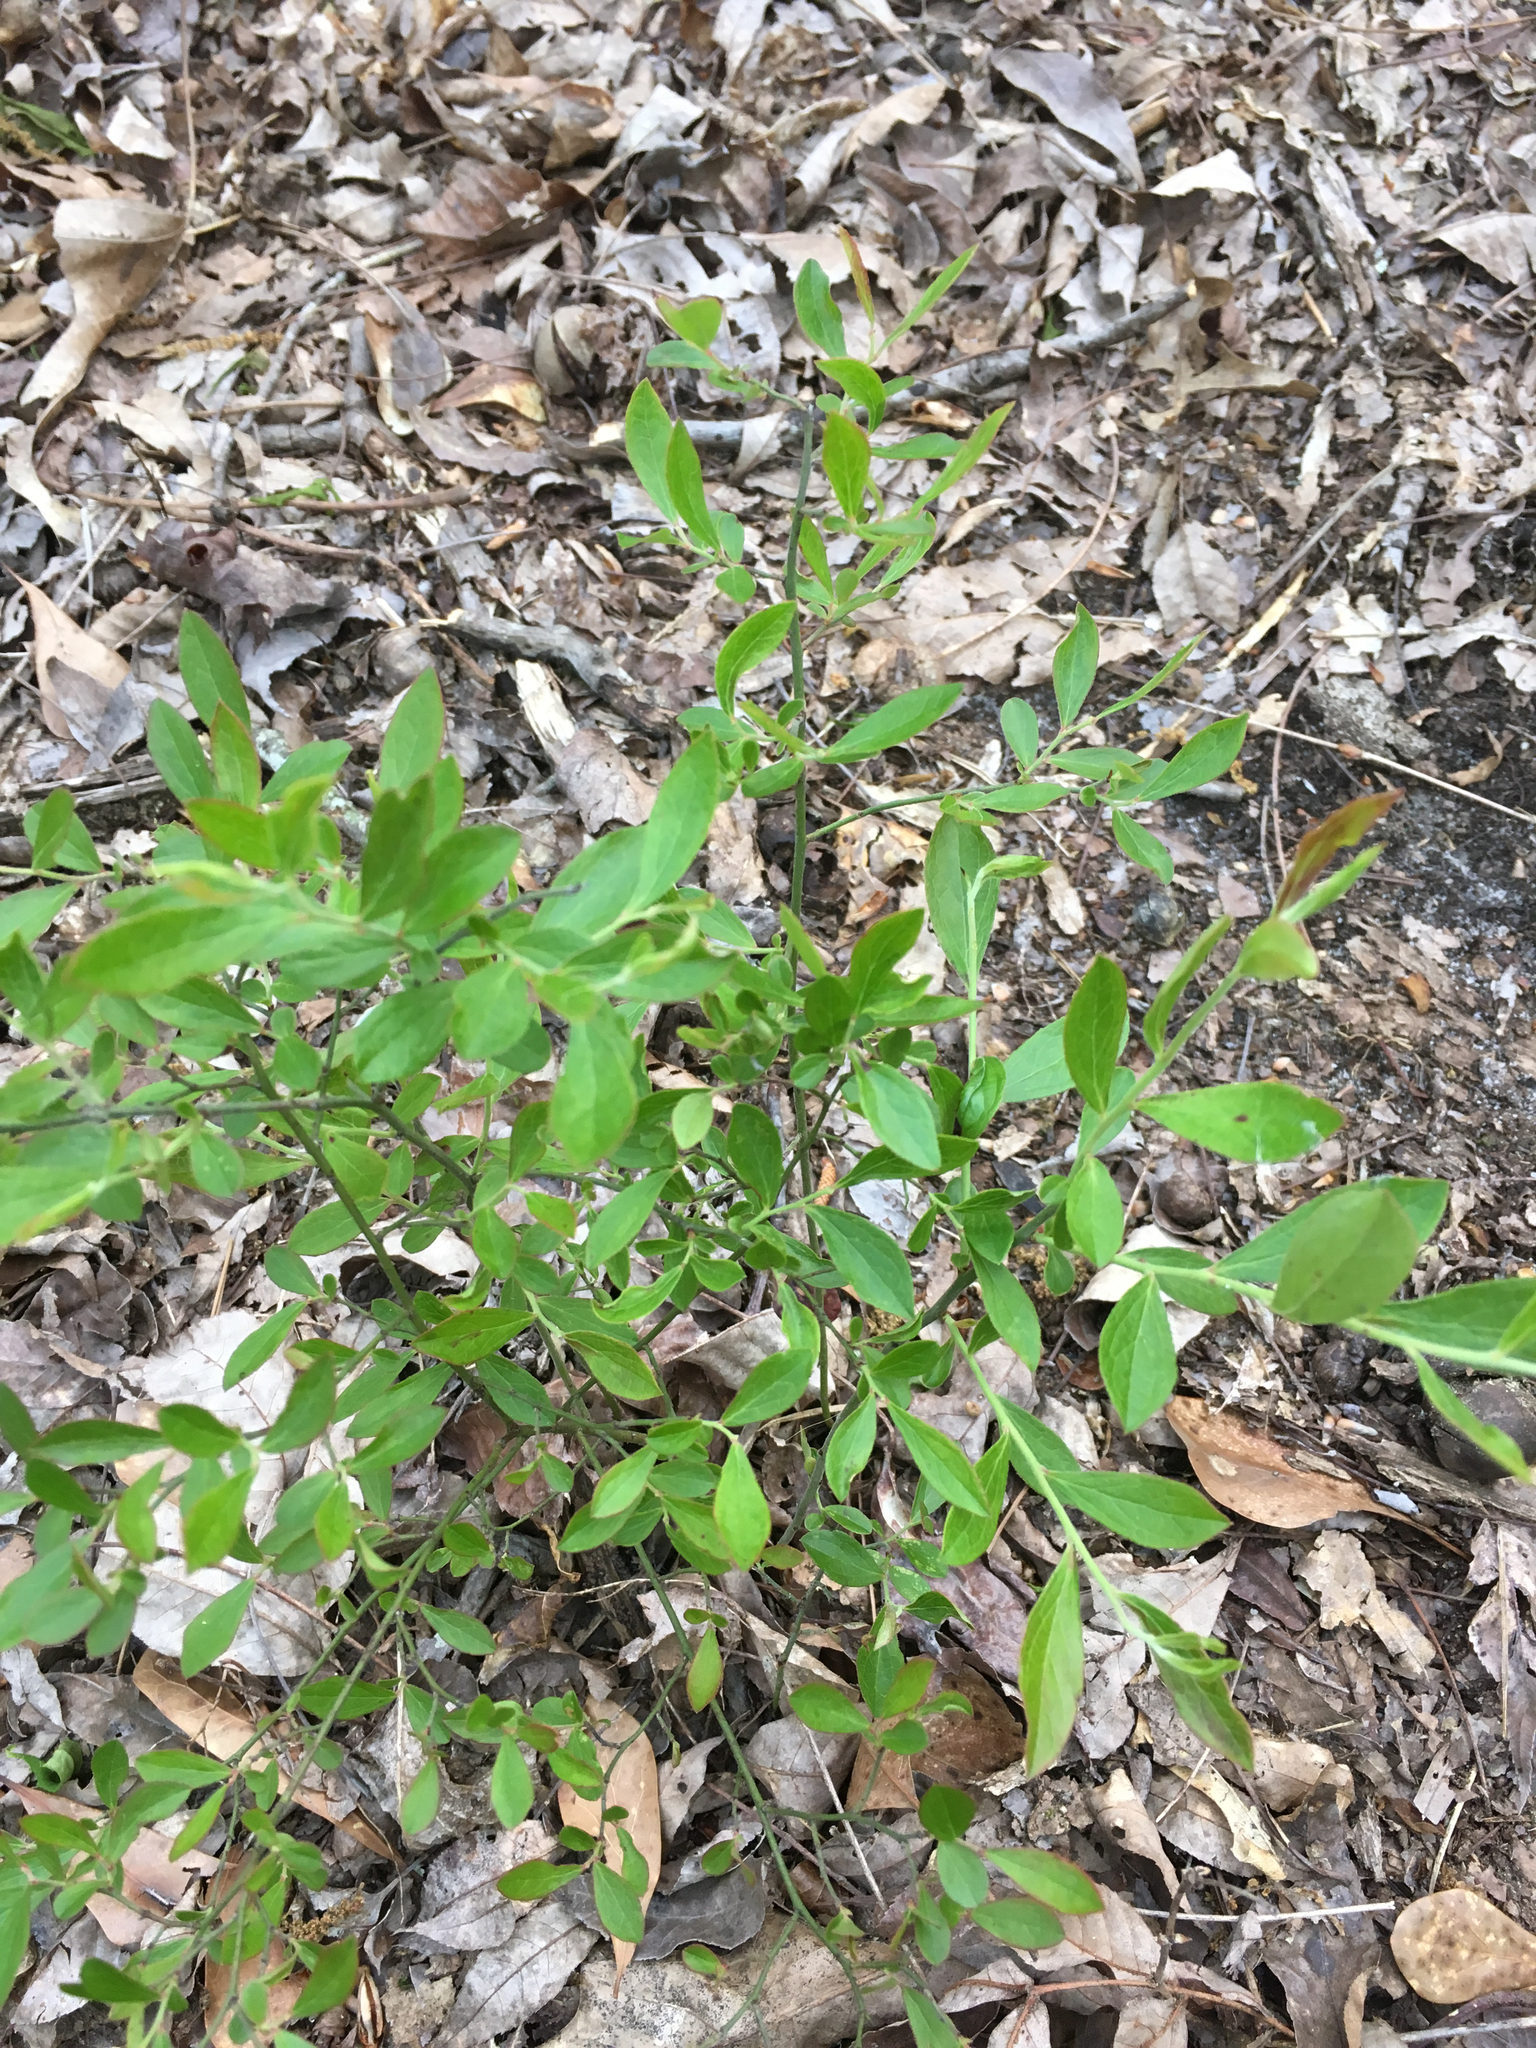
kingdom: Plantae
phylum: Tracheophyta
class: Magnoliopsida
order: Ericales
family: Ericaceae
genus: Vaccinium
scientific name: Vaccinium tenellum
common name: Southern blueberry
